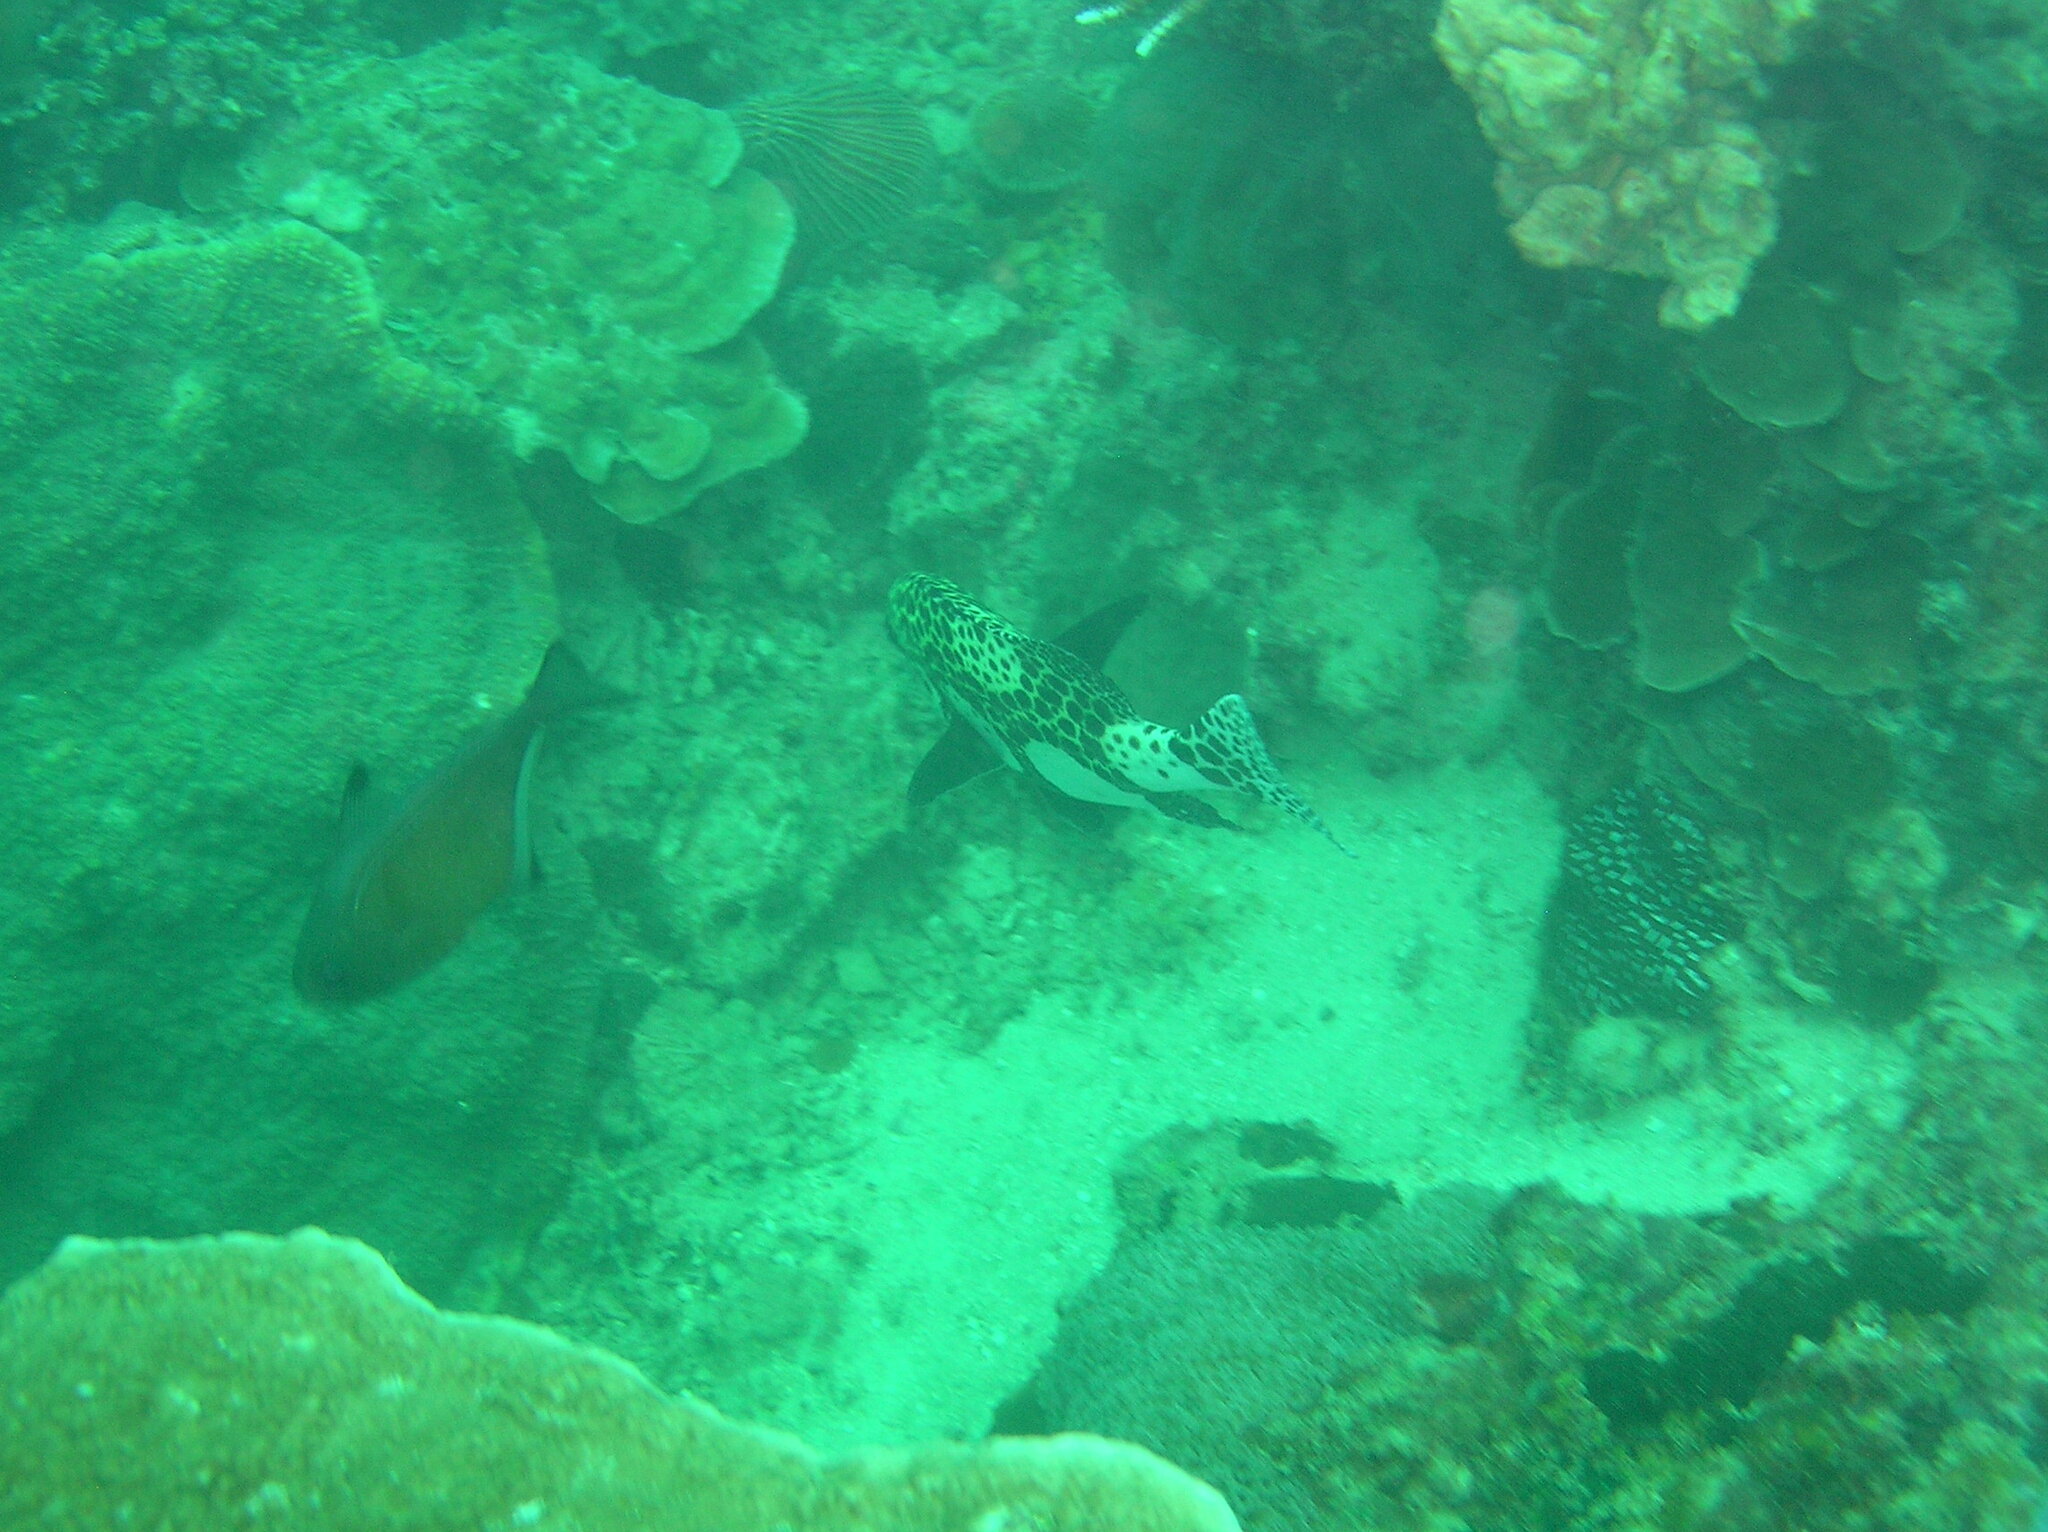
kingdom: Animalia
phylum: Chordata
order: Perciformes
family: Haemulidae
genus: Plectorhinchus
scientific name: Plectorhinchus chaetodonoides
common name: Harlequin sweetlips
